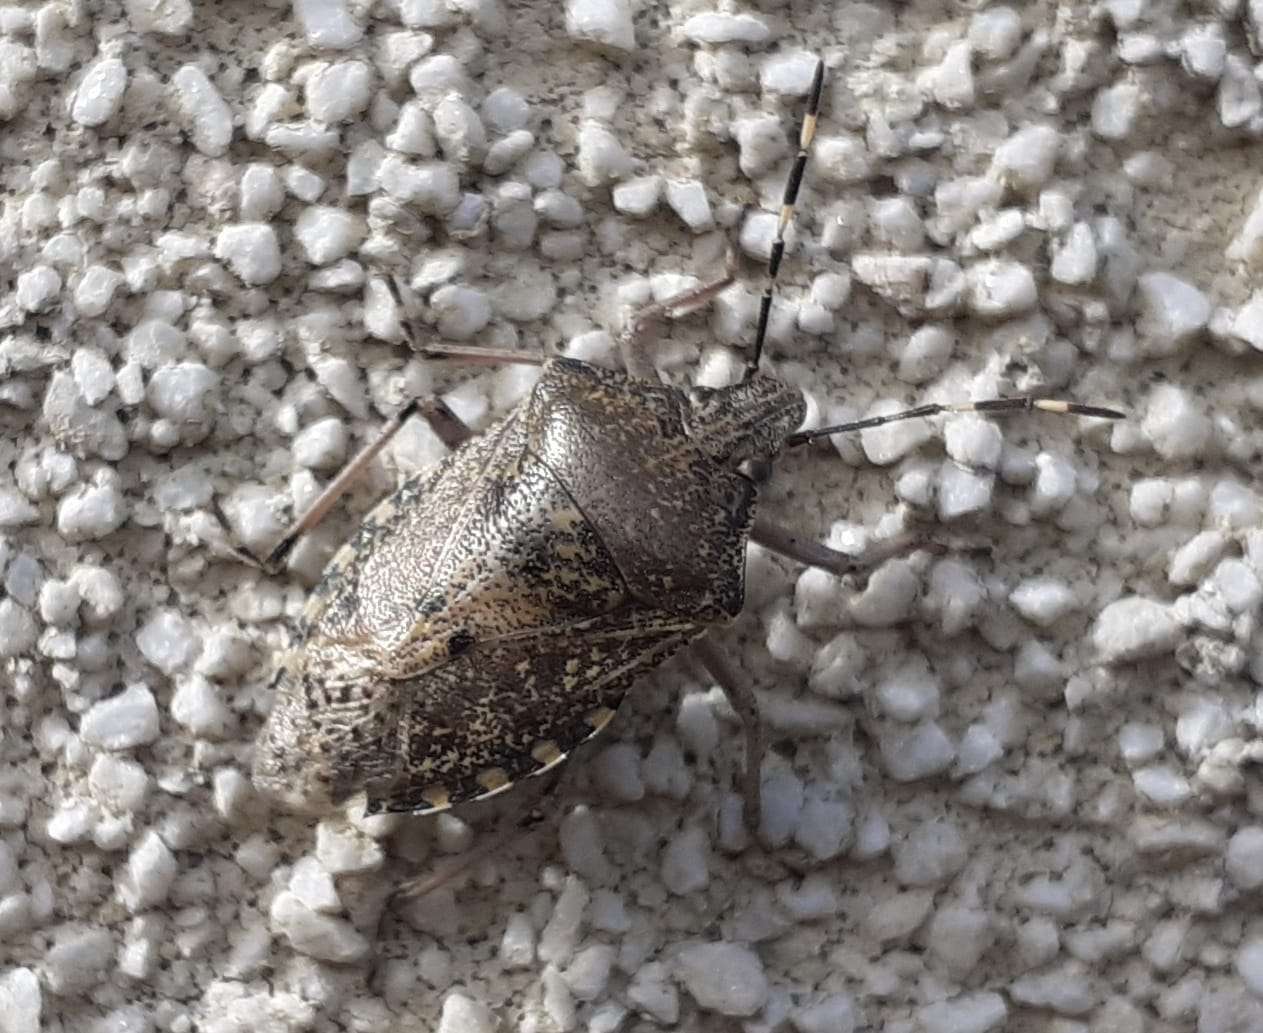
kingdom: Animalia
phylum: Arthropoda
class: Insecta
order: Hemiptera
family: Pentatomidae
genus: Rhaphigaster
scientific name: Rhaphigaster nebulosa
